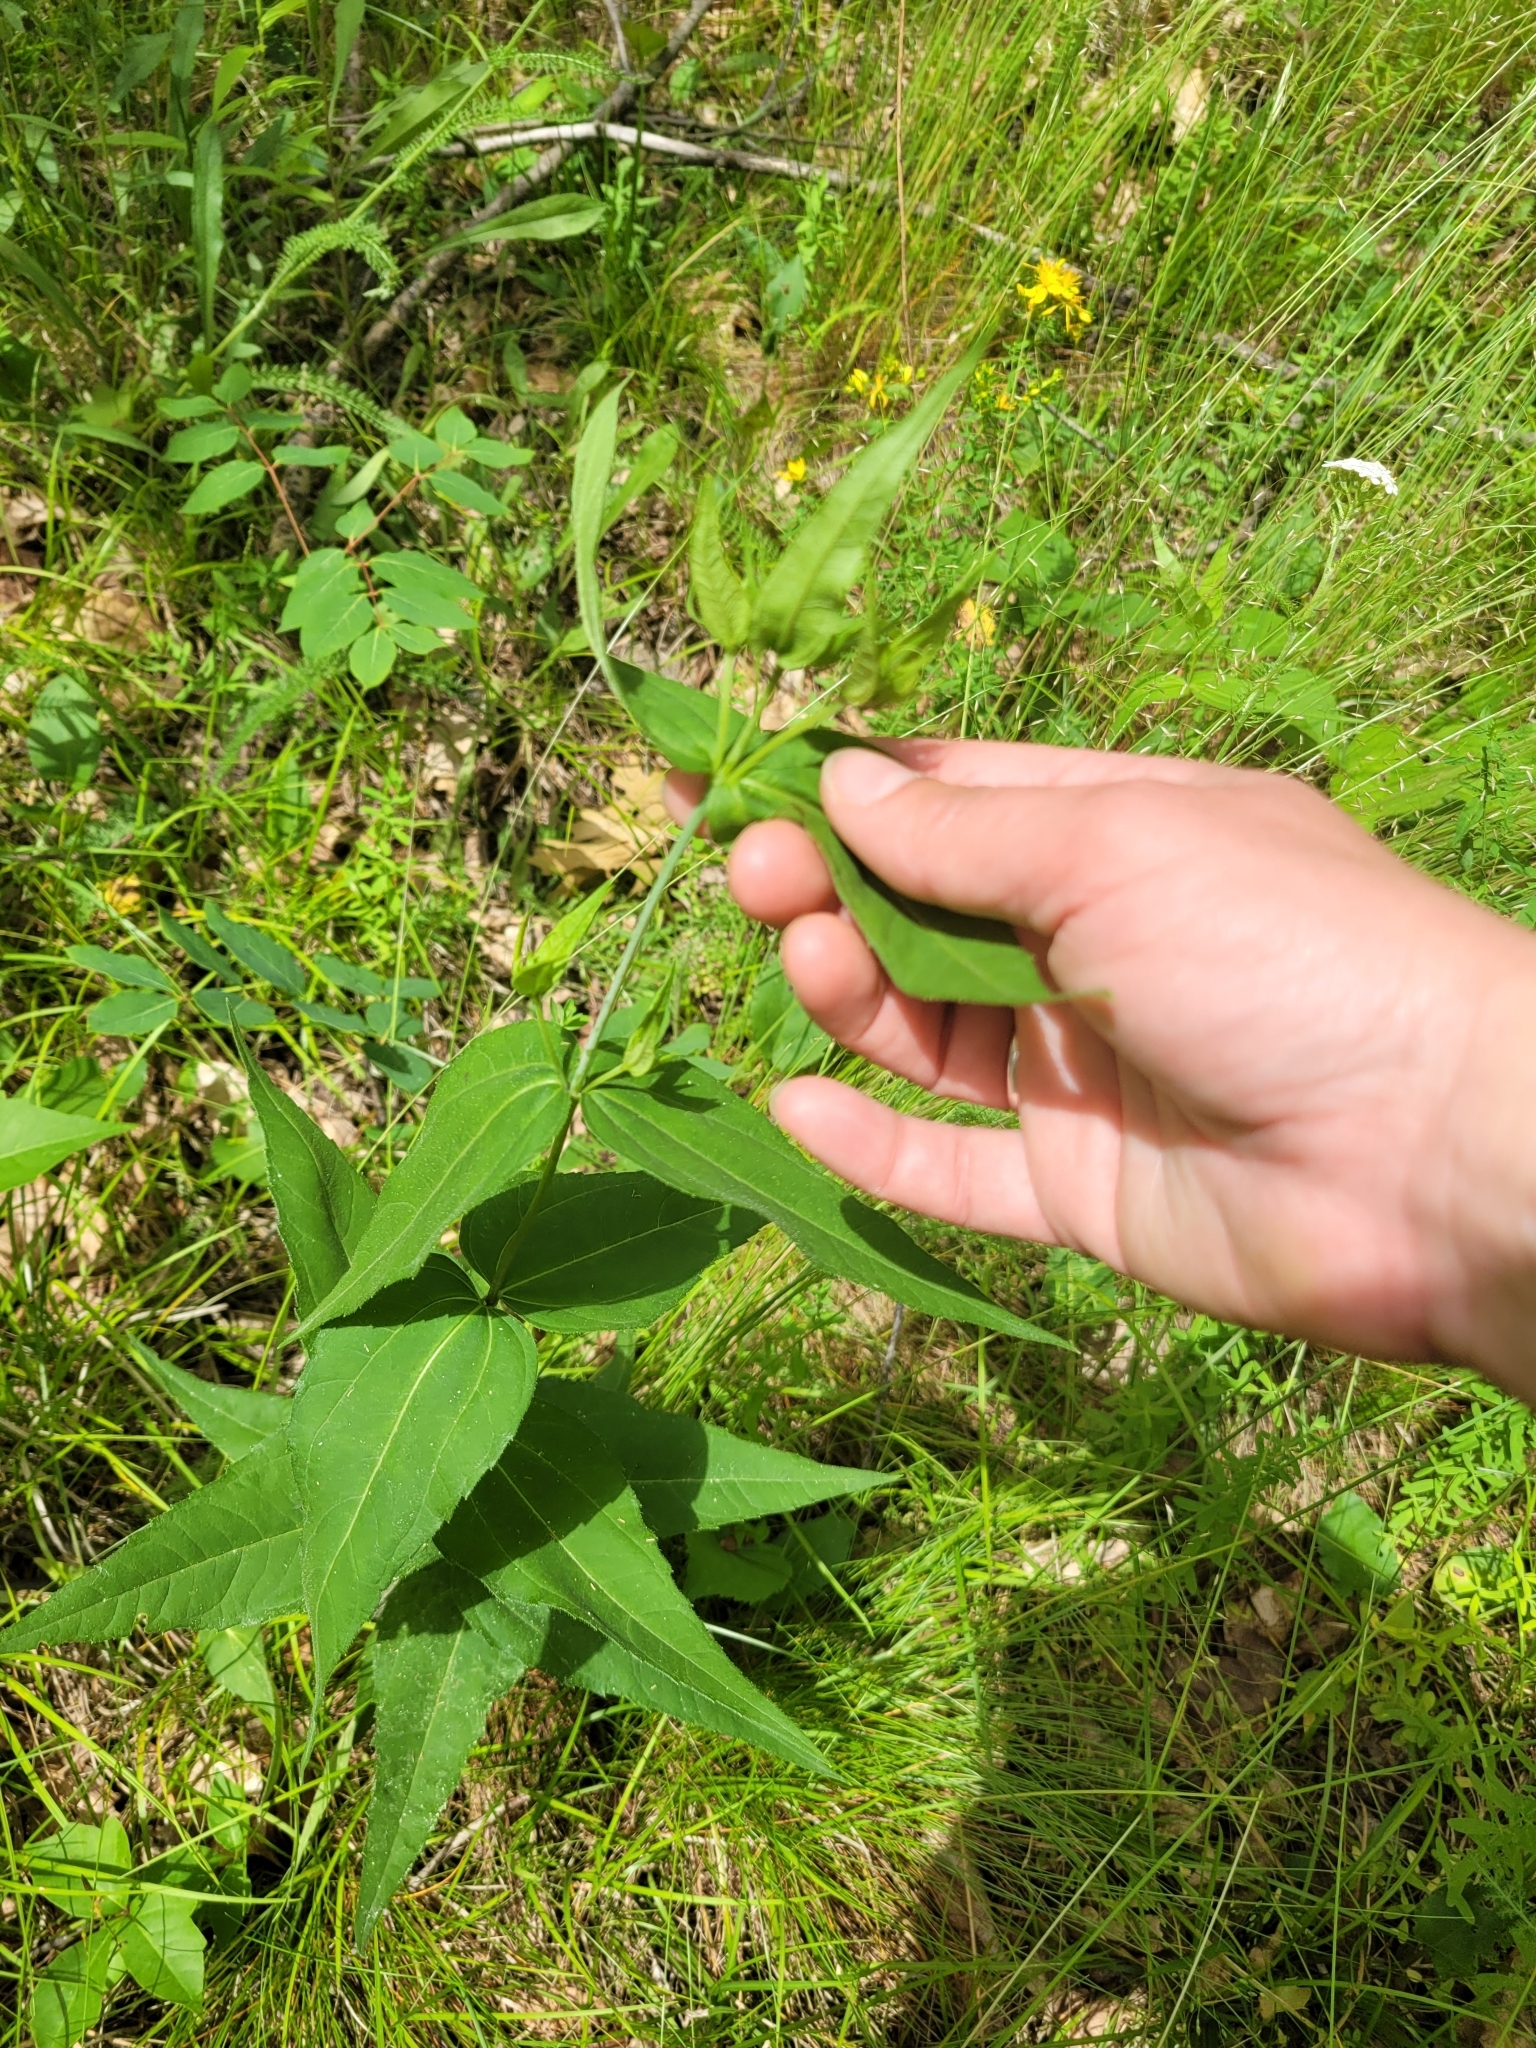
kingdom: Plantae
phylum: Tracheophyta
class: Magnoliopsida
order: Asterales
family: Asteraceae
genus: Helianthus
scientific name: Helianthus divaricatus
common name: Divergent sunflower
